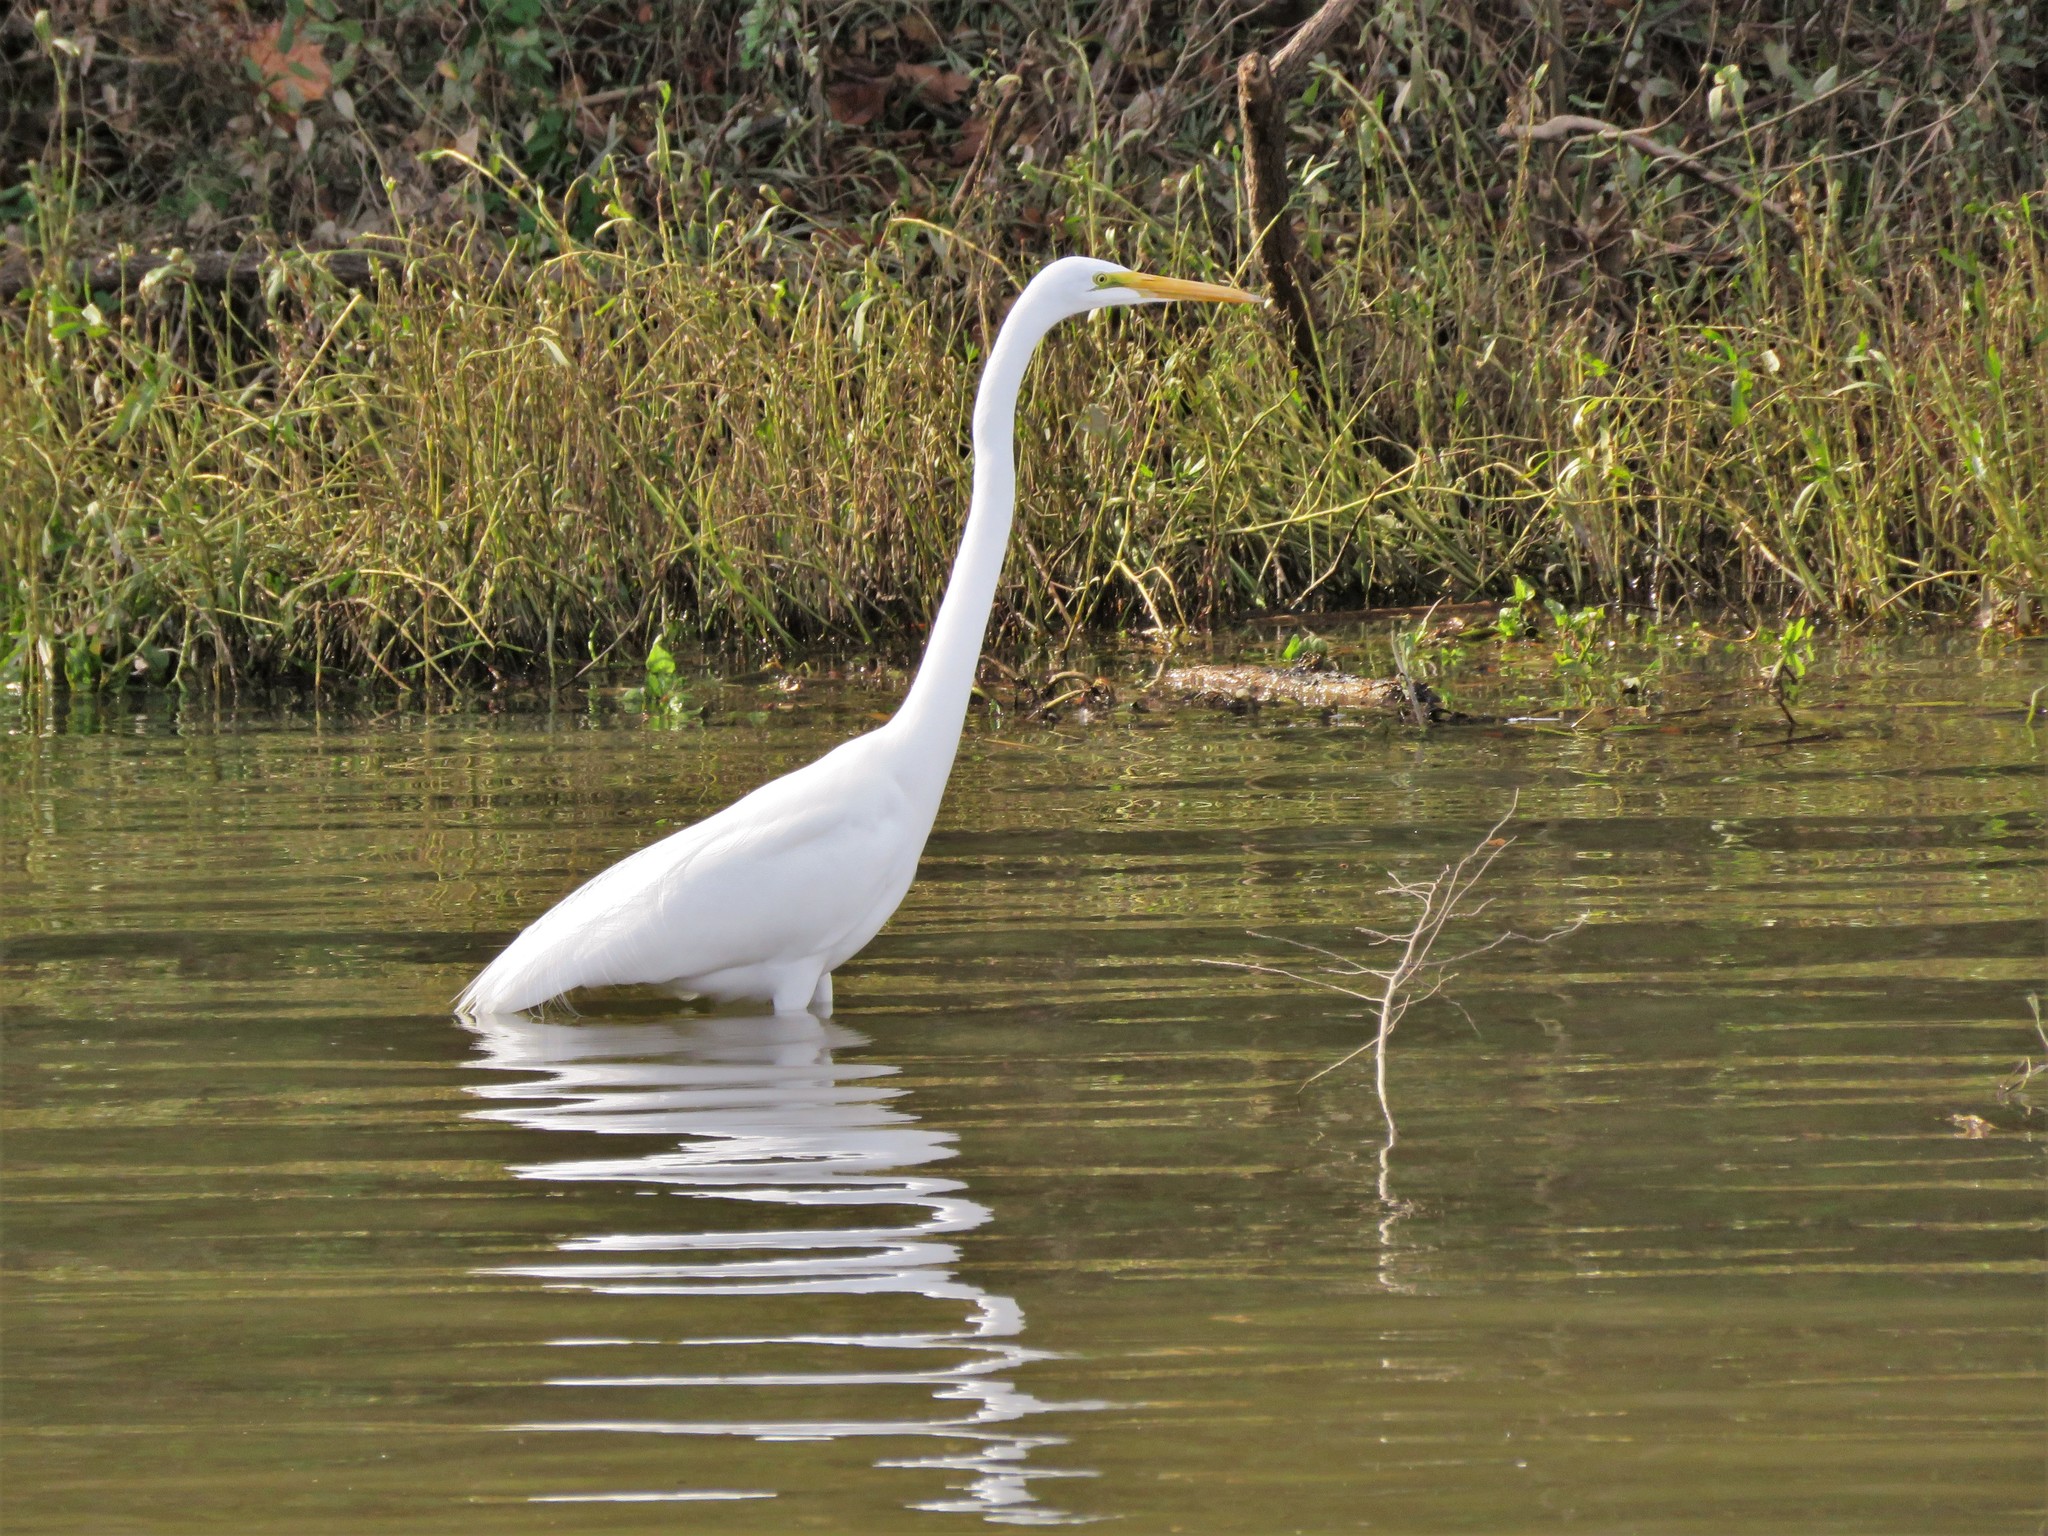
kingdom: Animalia
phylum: Chordata
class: Aves
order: Pelecaniformes
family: Ardeidae
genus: Ardea
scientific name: Ardea alba
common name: Great egret
